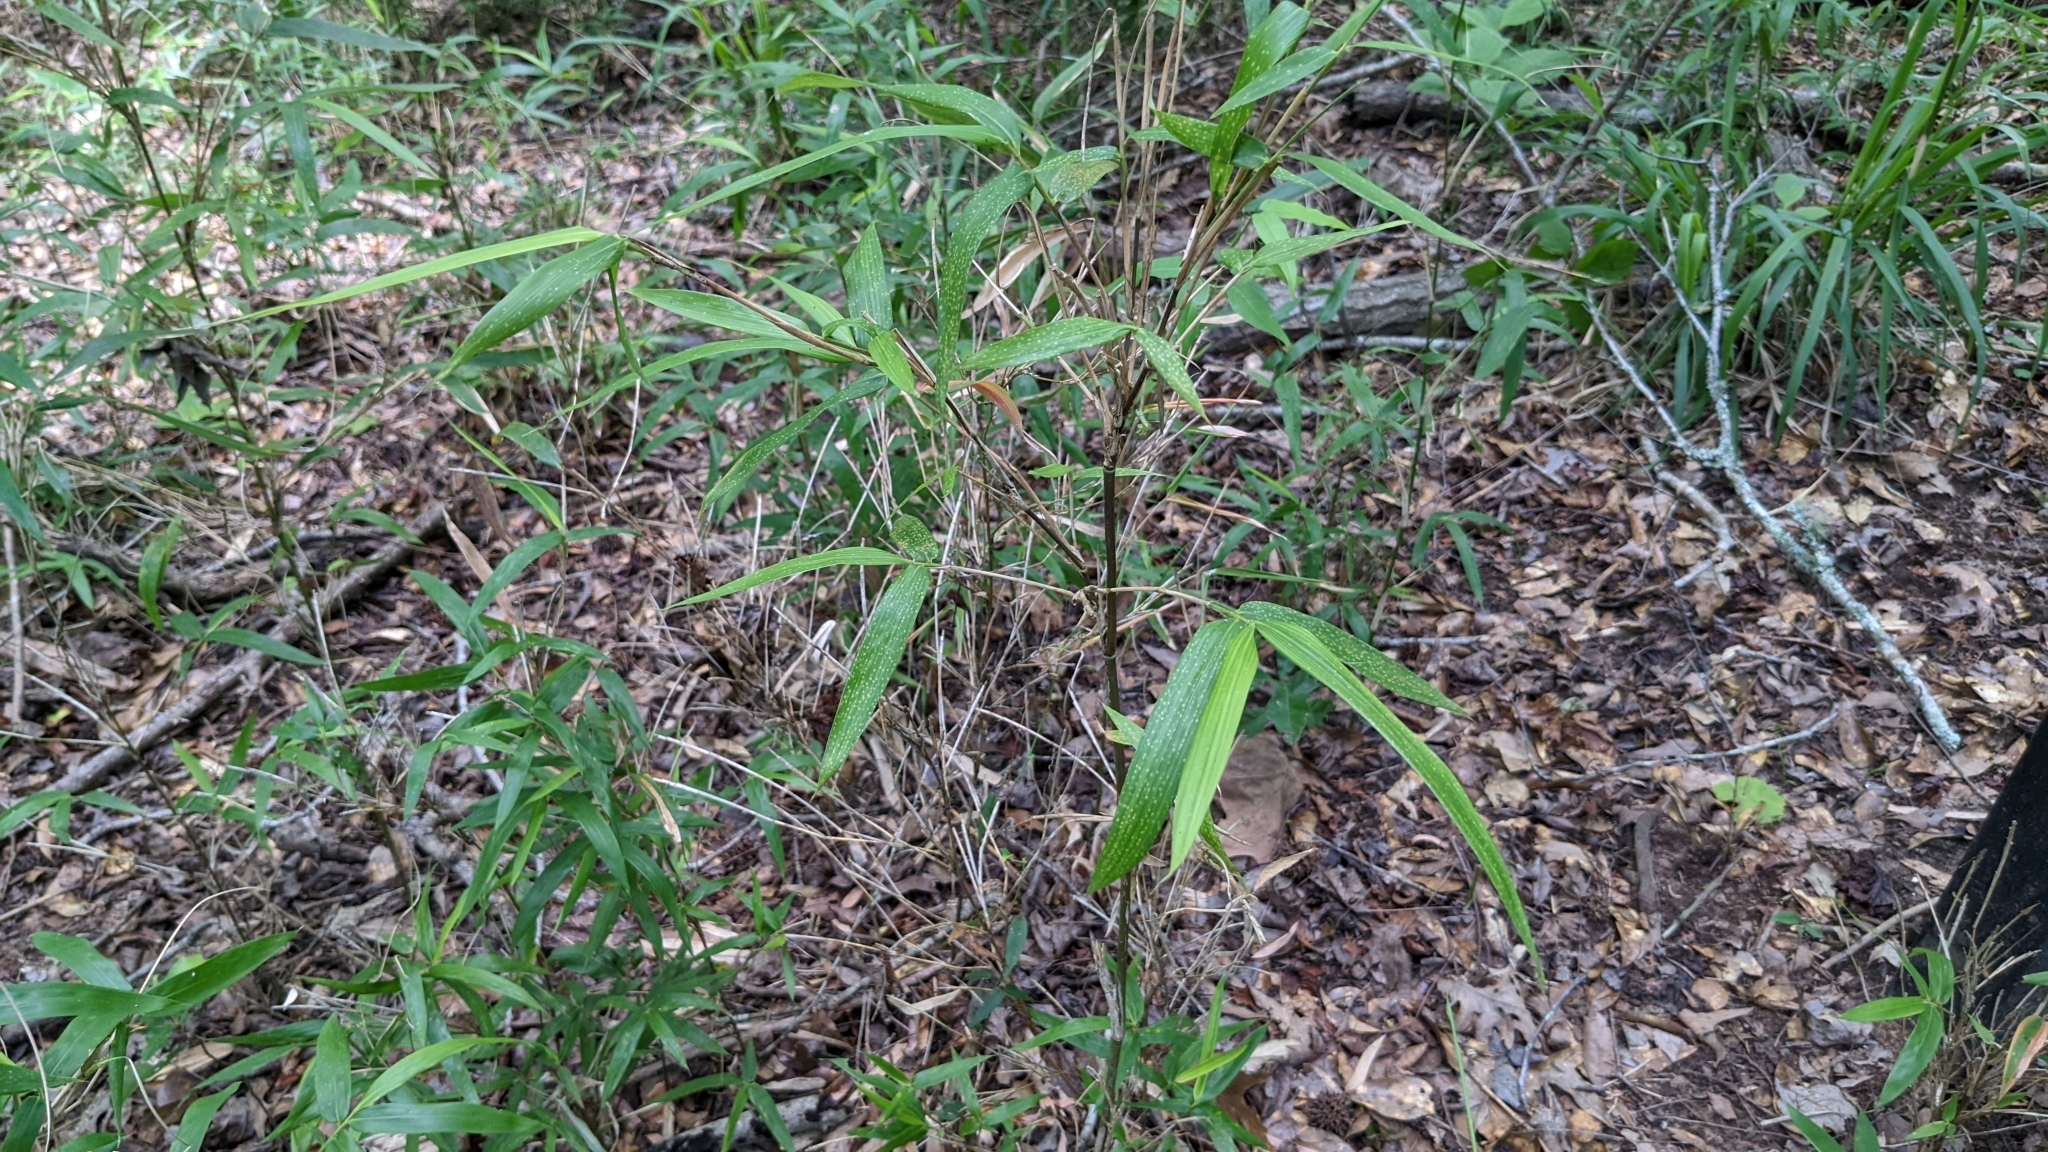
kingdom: Plantae
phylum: Tracheophyta
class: Liliopsida
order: Poales
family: Poaceae
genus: Arundinaria
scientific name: Arundinaria gigantea
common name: Giant cane
